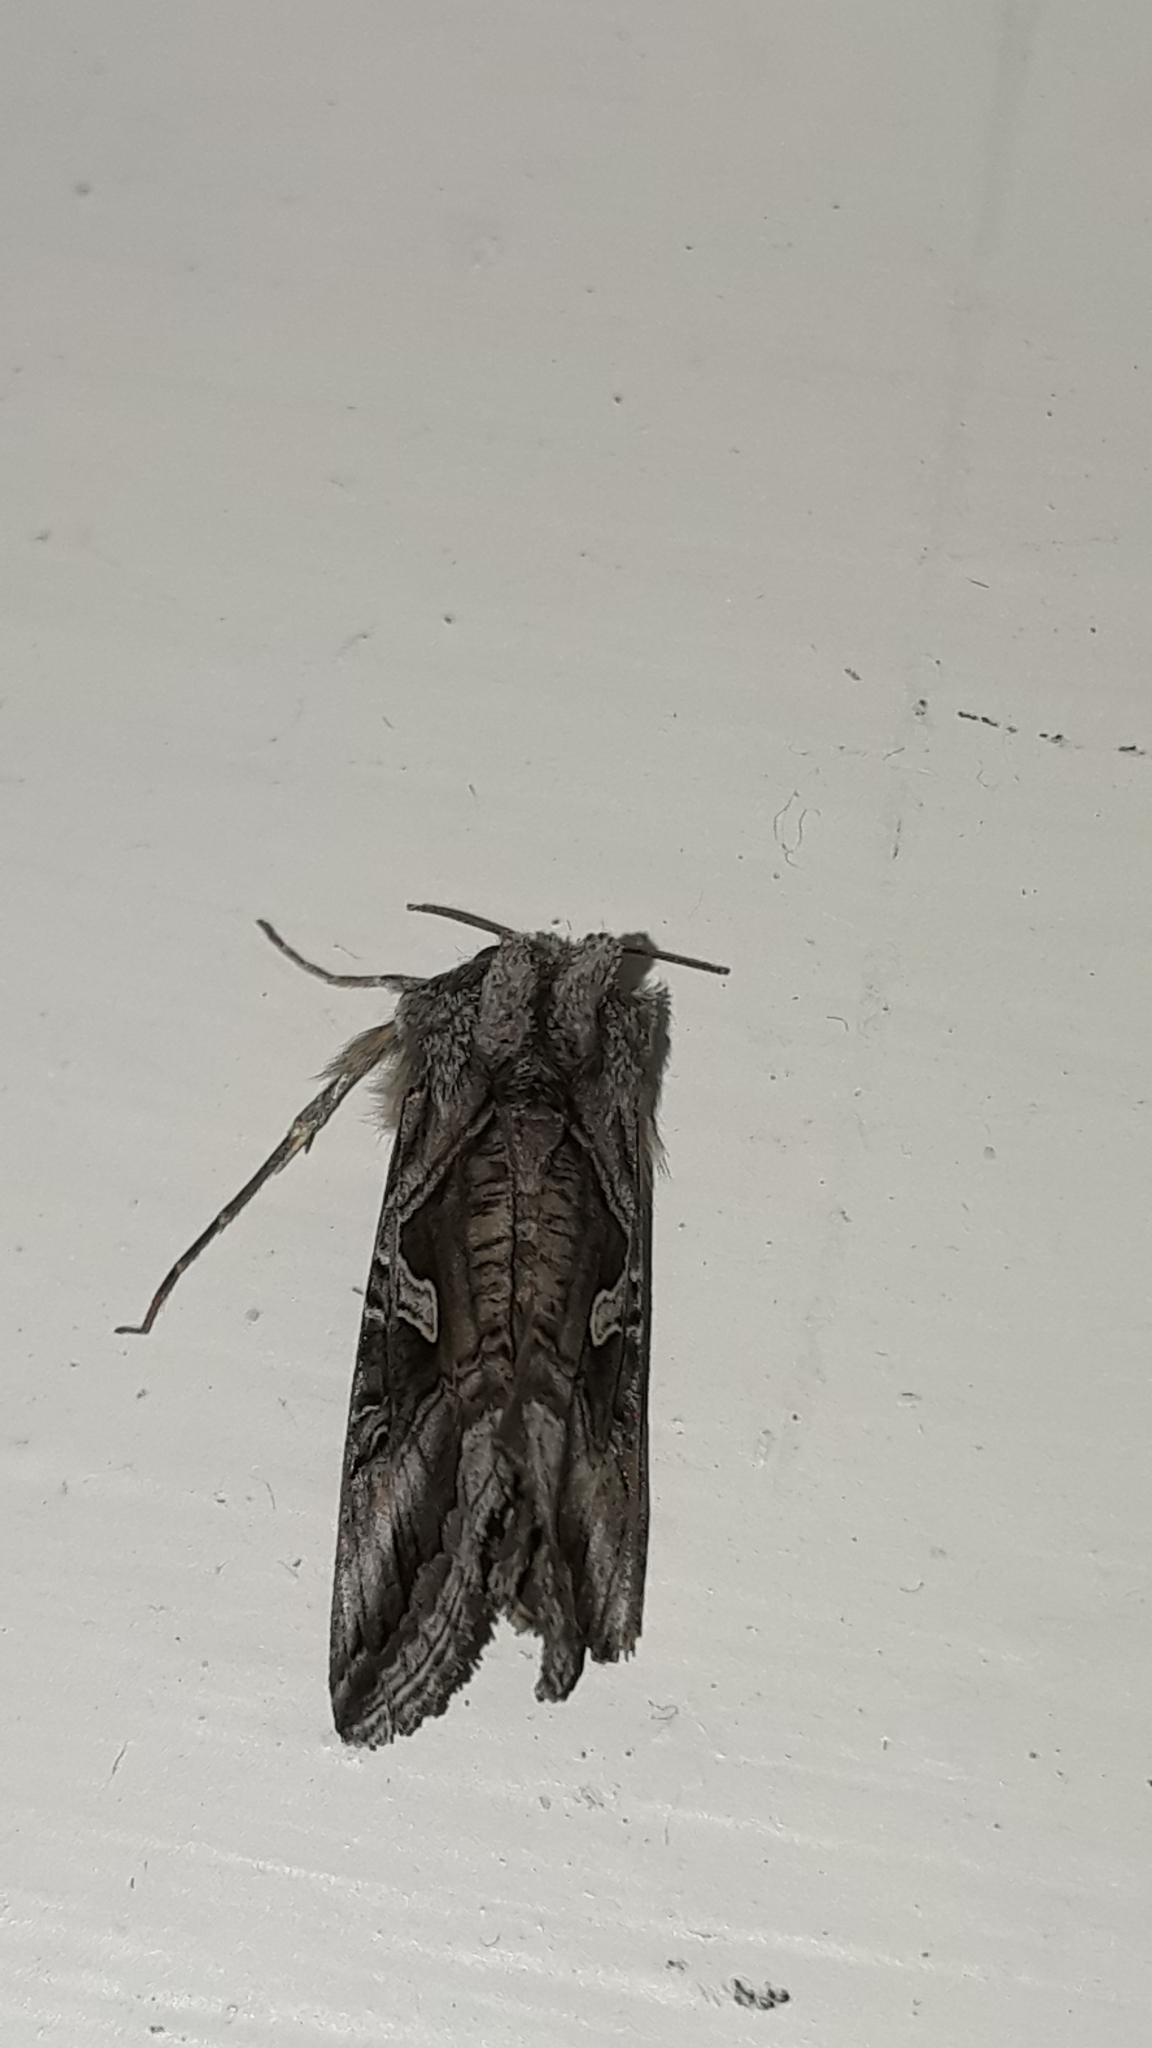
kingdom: Animalia
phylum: Arthropoda
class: Insecta
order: Lepidoptera
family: Noctuidae
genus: Cornutiplusia
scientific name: Cornutiplusia circumflexa
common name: Yorkshire y
